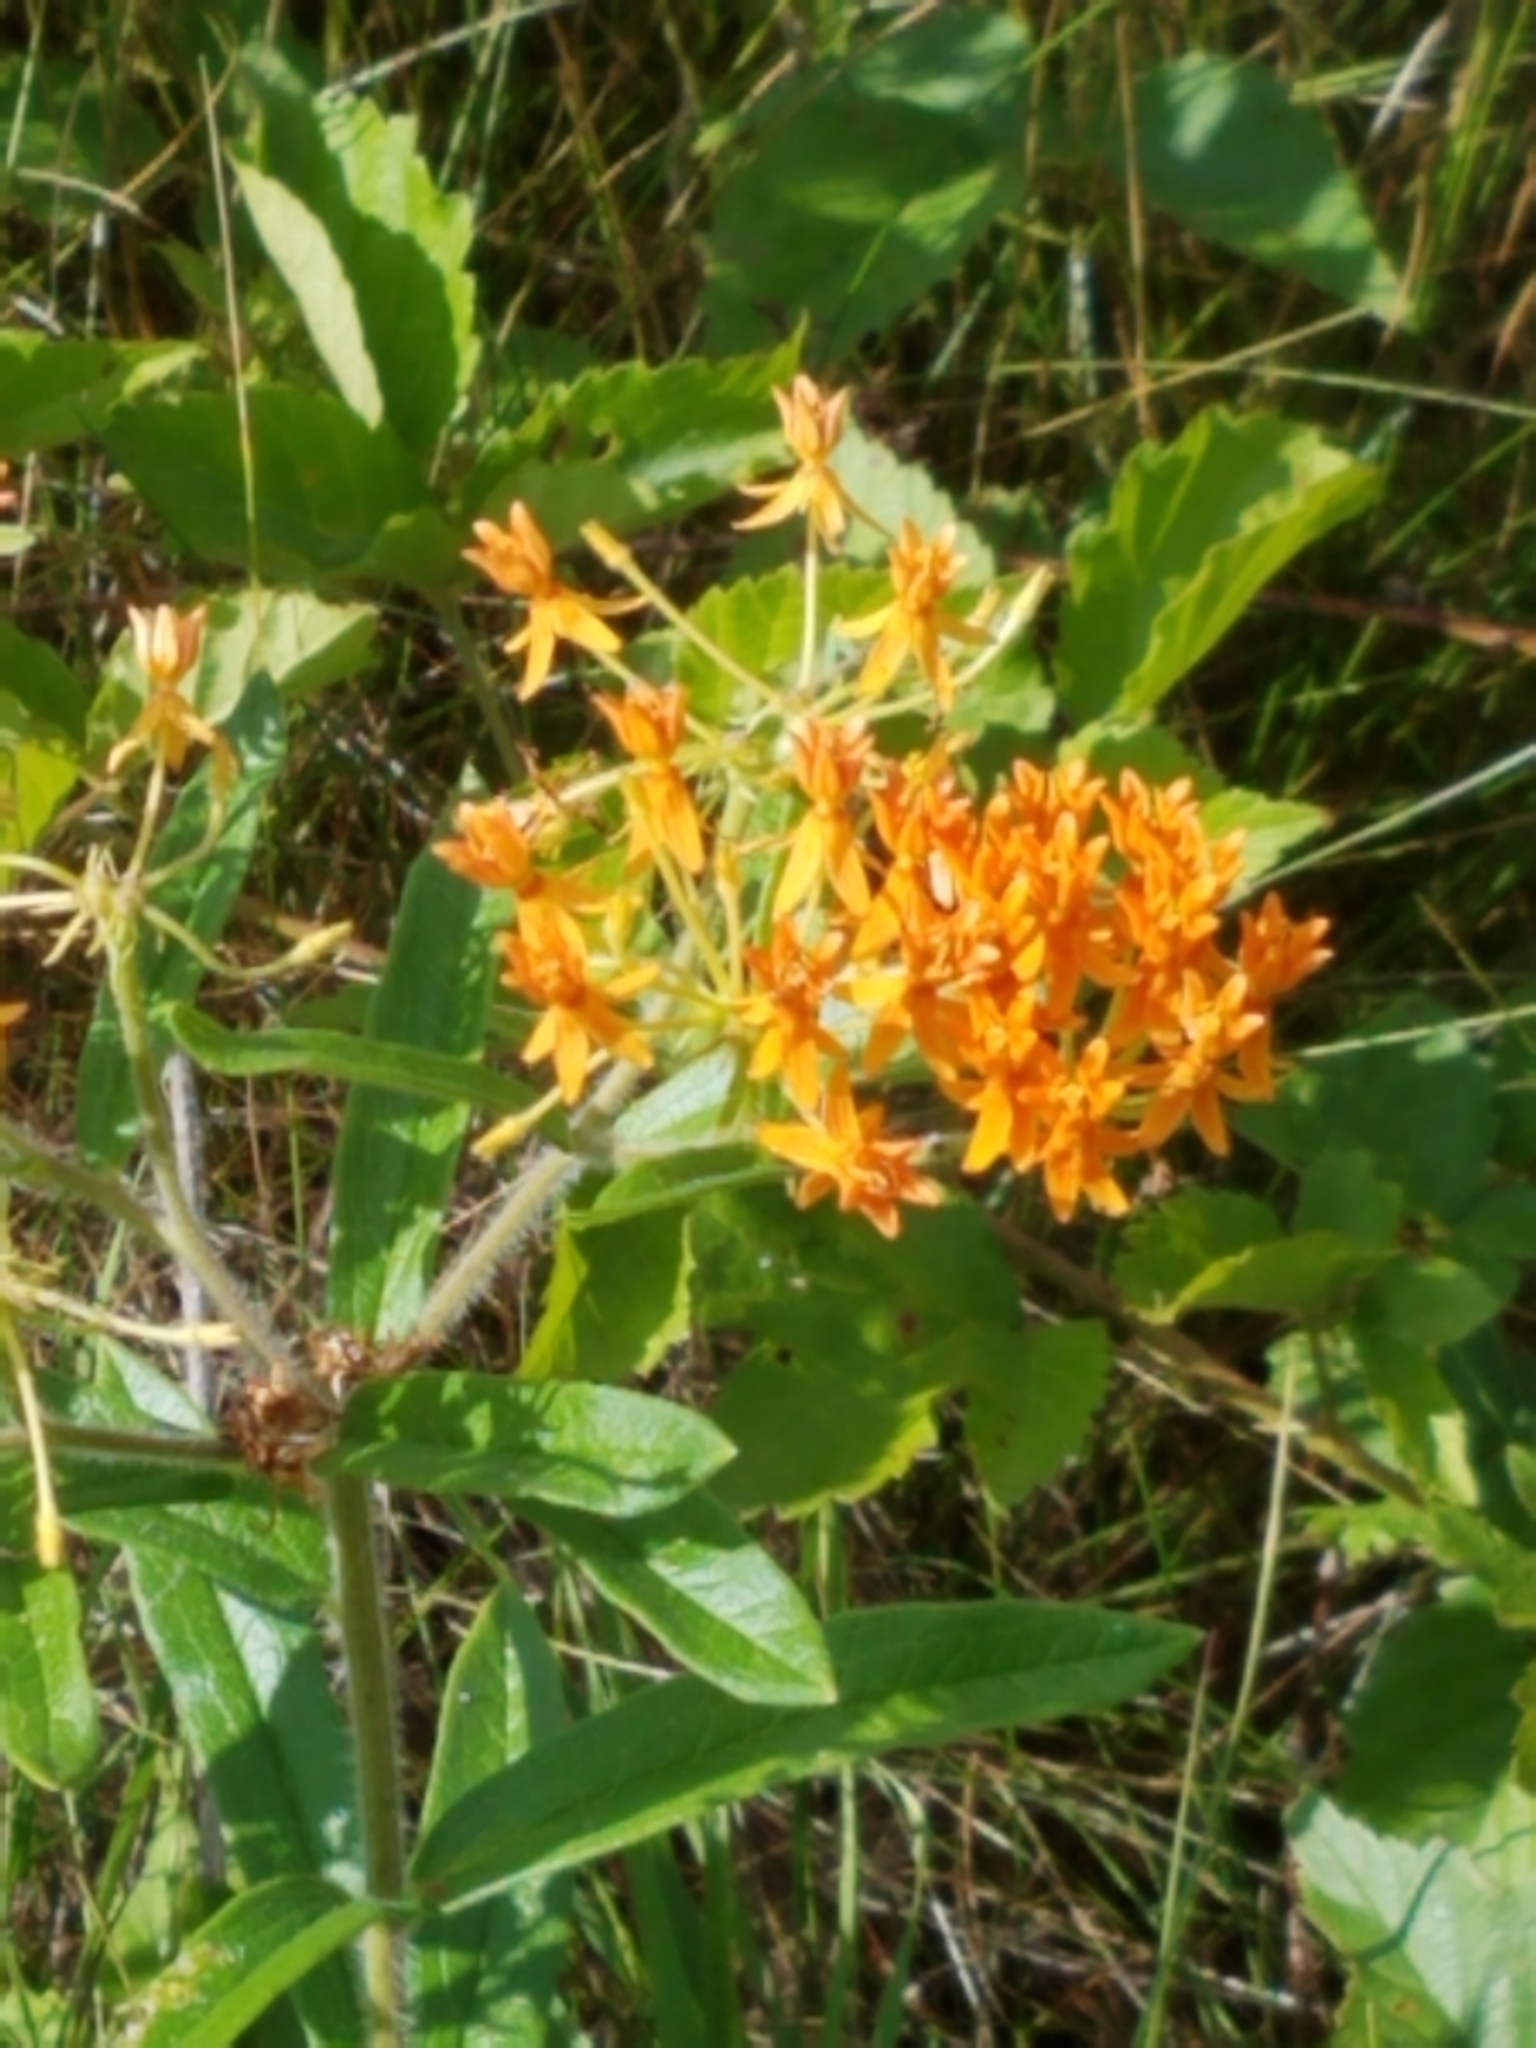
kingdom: Plantae
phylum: Tracheophyta
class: Magnoliopsida
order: Gentianales
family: Apocynaceae
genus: Asclepias
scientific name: Asclepias tuberosa
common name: Butterfly milkweed
